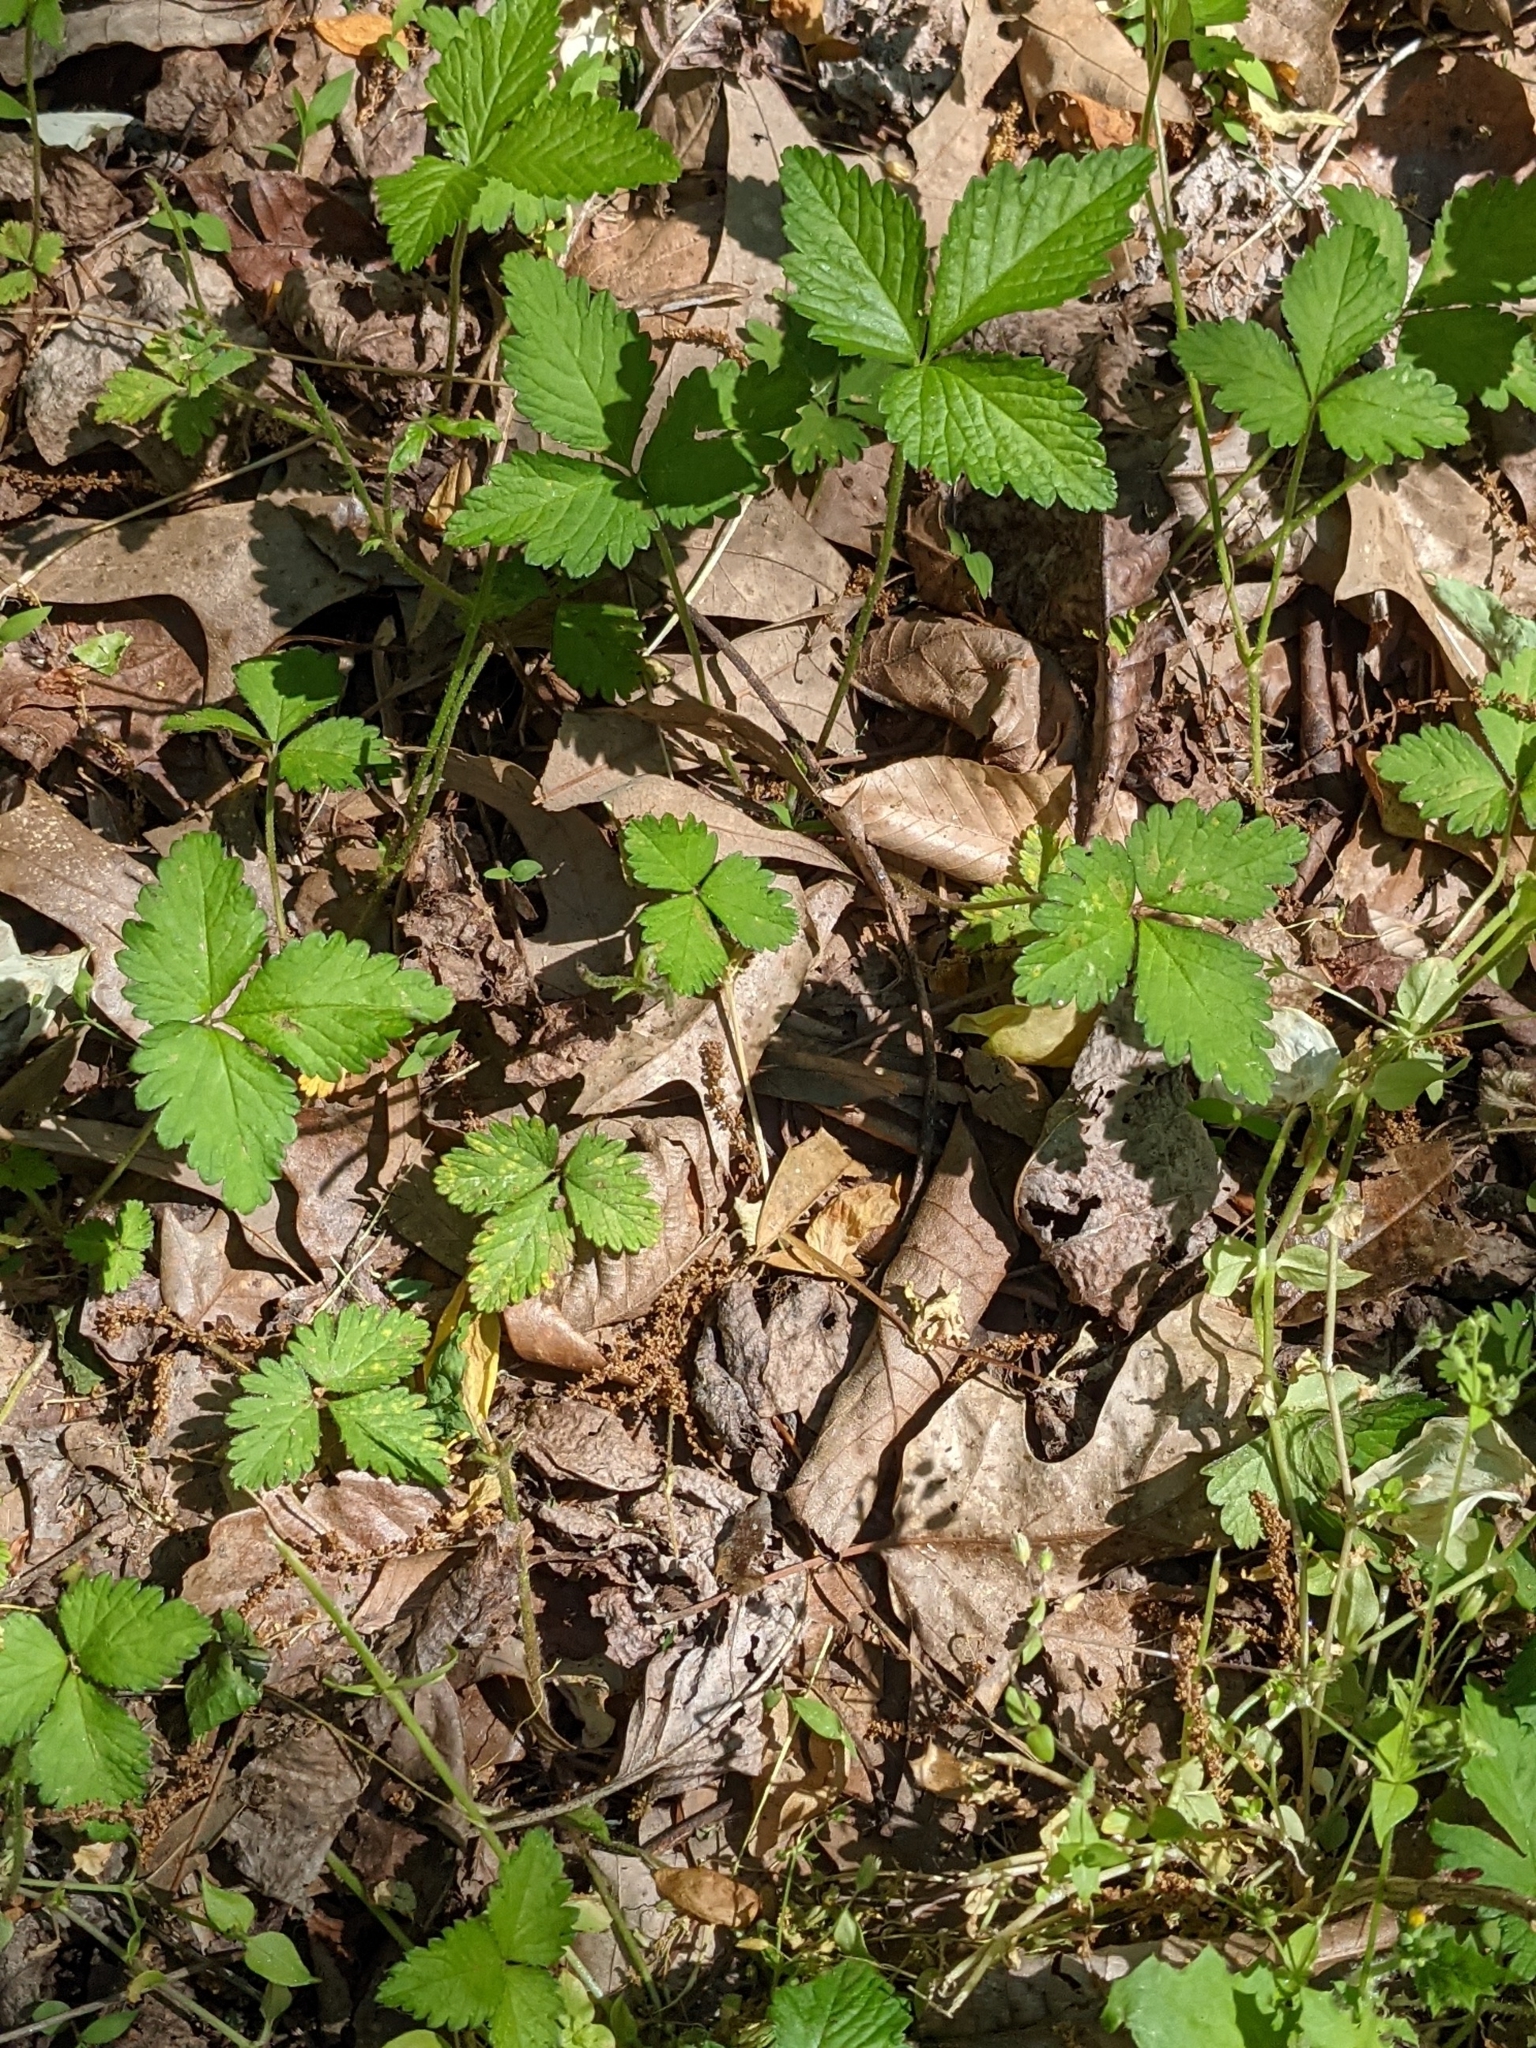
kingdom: Plantae
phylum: Tracheophyta
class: Magnoliopsida
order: Rosales
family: Rosaceae
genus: Potentilla
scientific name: Potentilla indica
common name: Yellow-flowered strawberry
